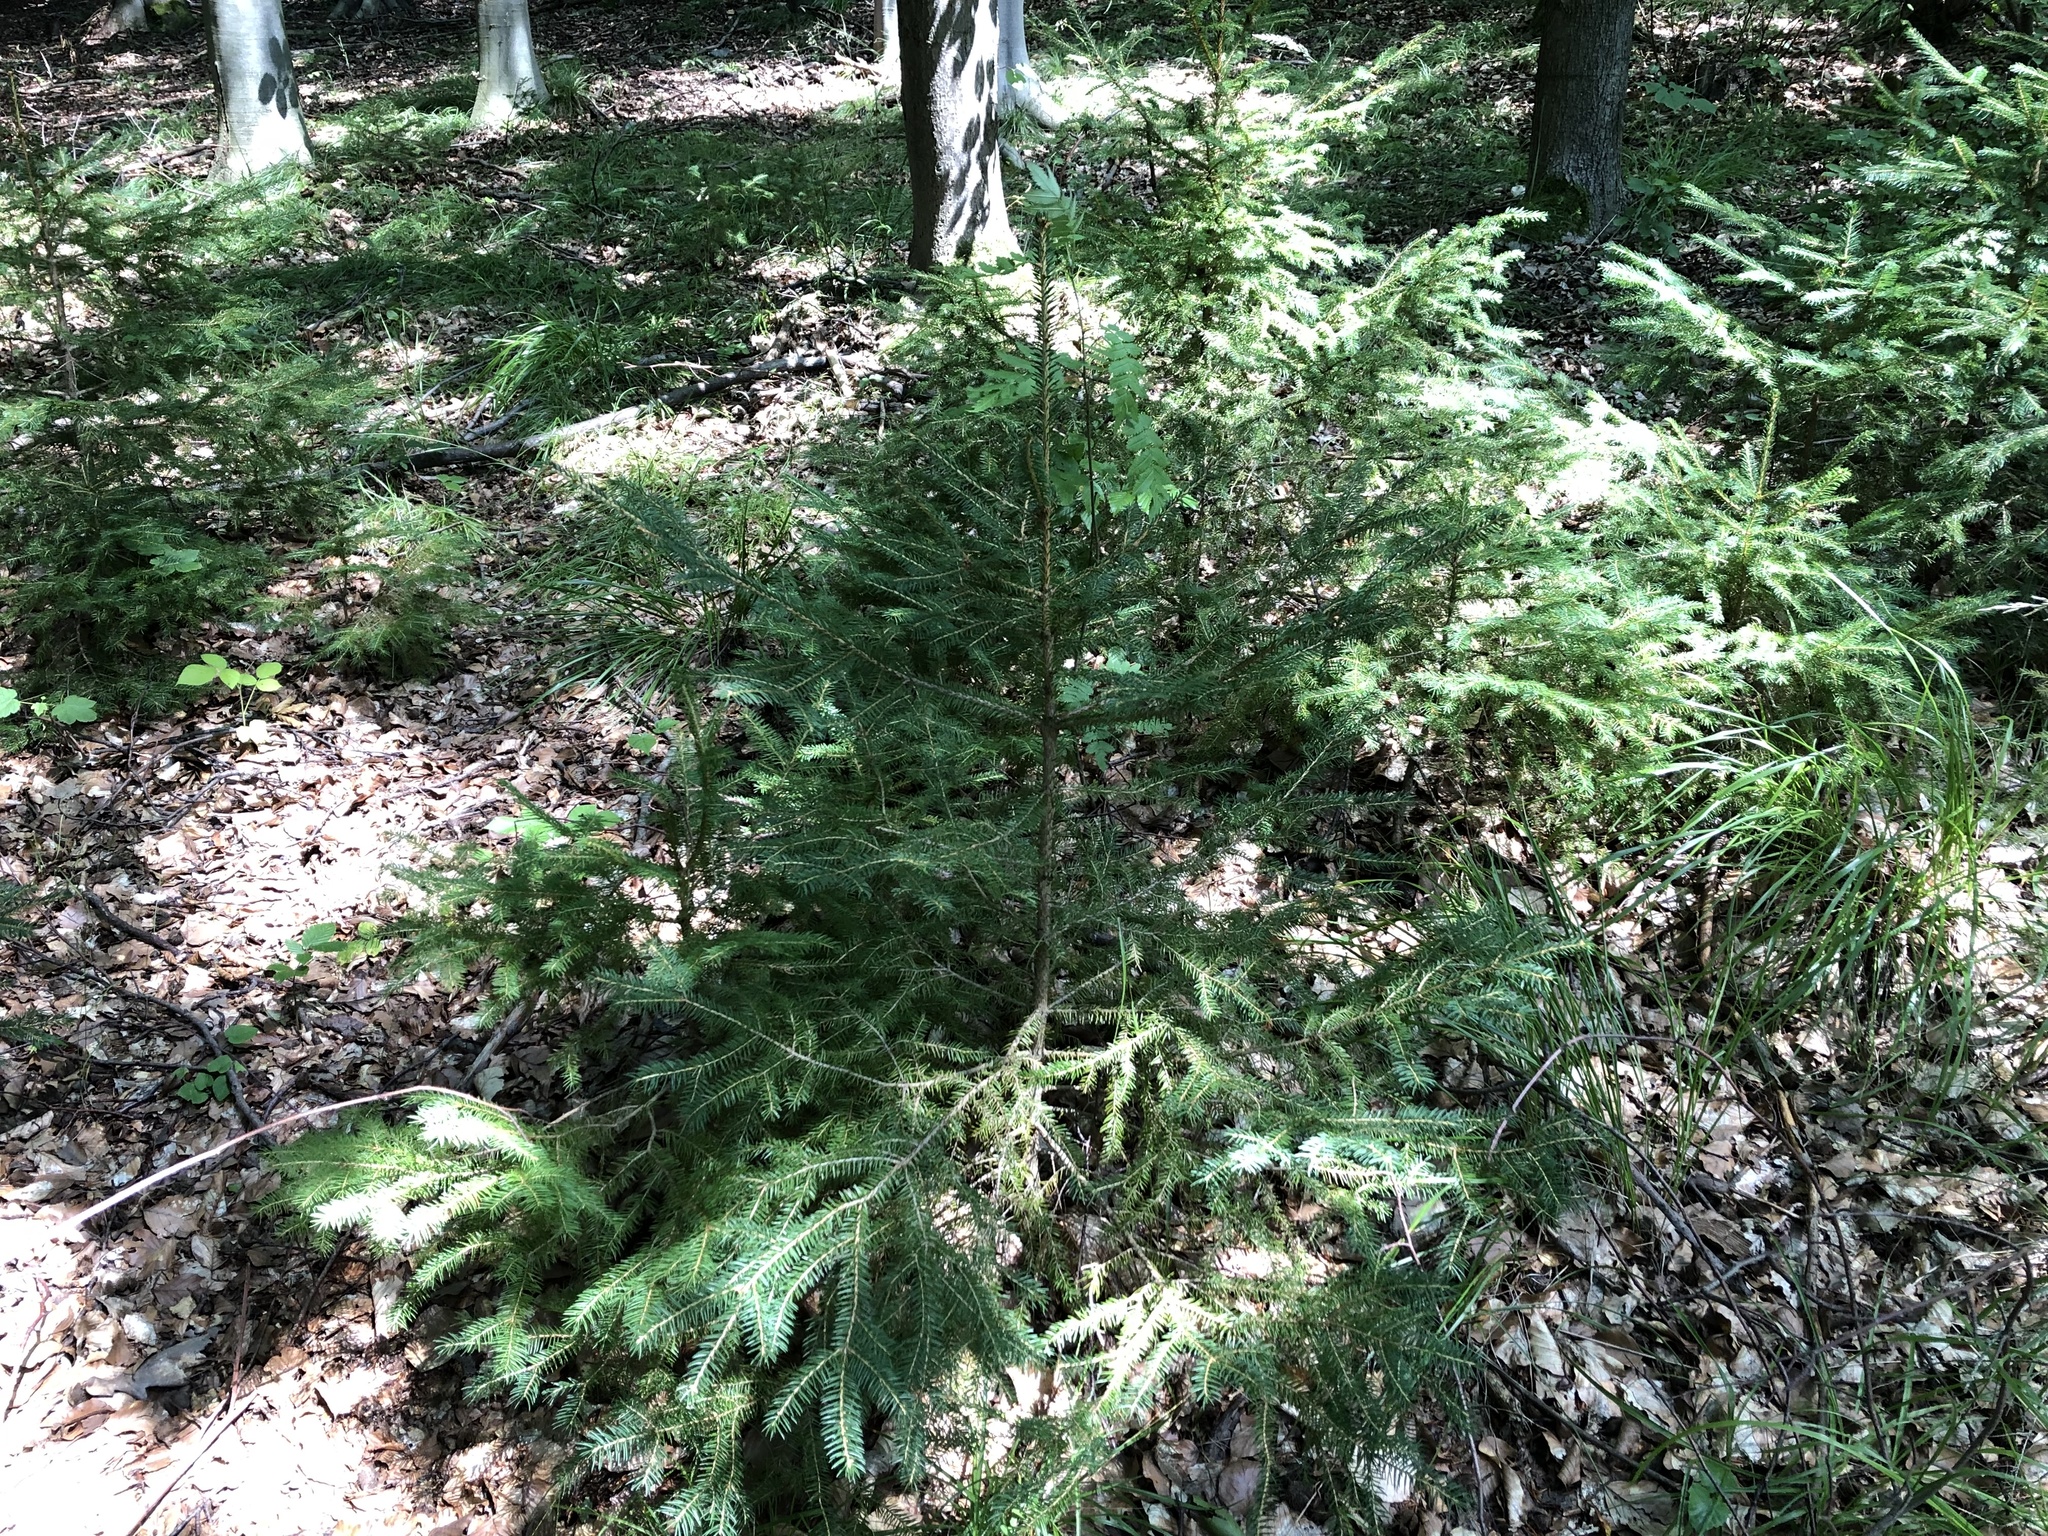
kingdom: Plantae
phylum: Tracheophyta
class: Pinopsida
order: Pinales
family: Pinaceae
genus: Picea
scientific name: Picea abies
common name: Norway spruce
